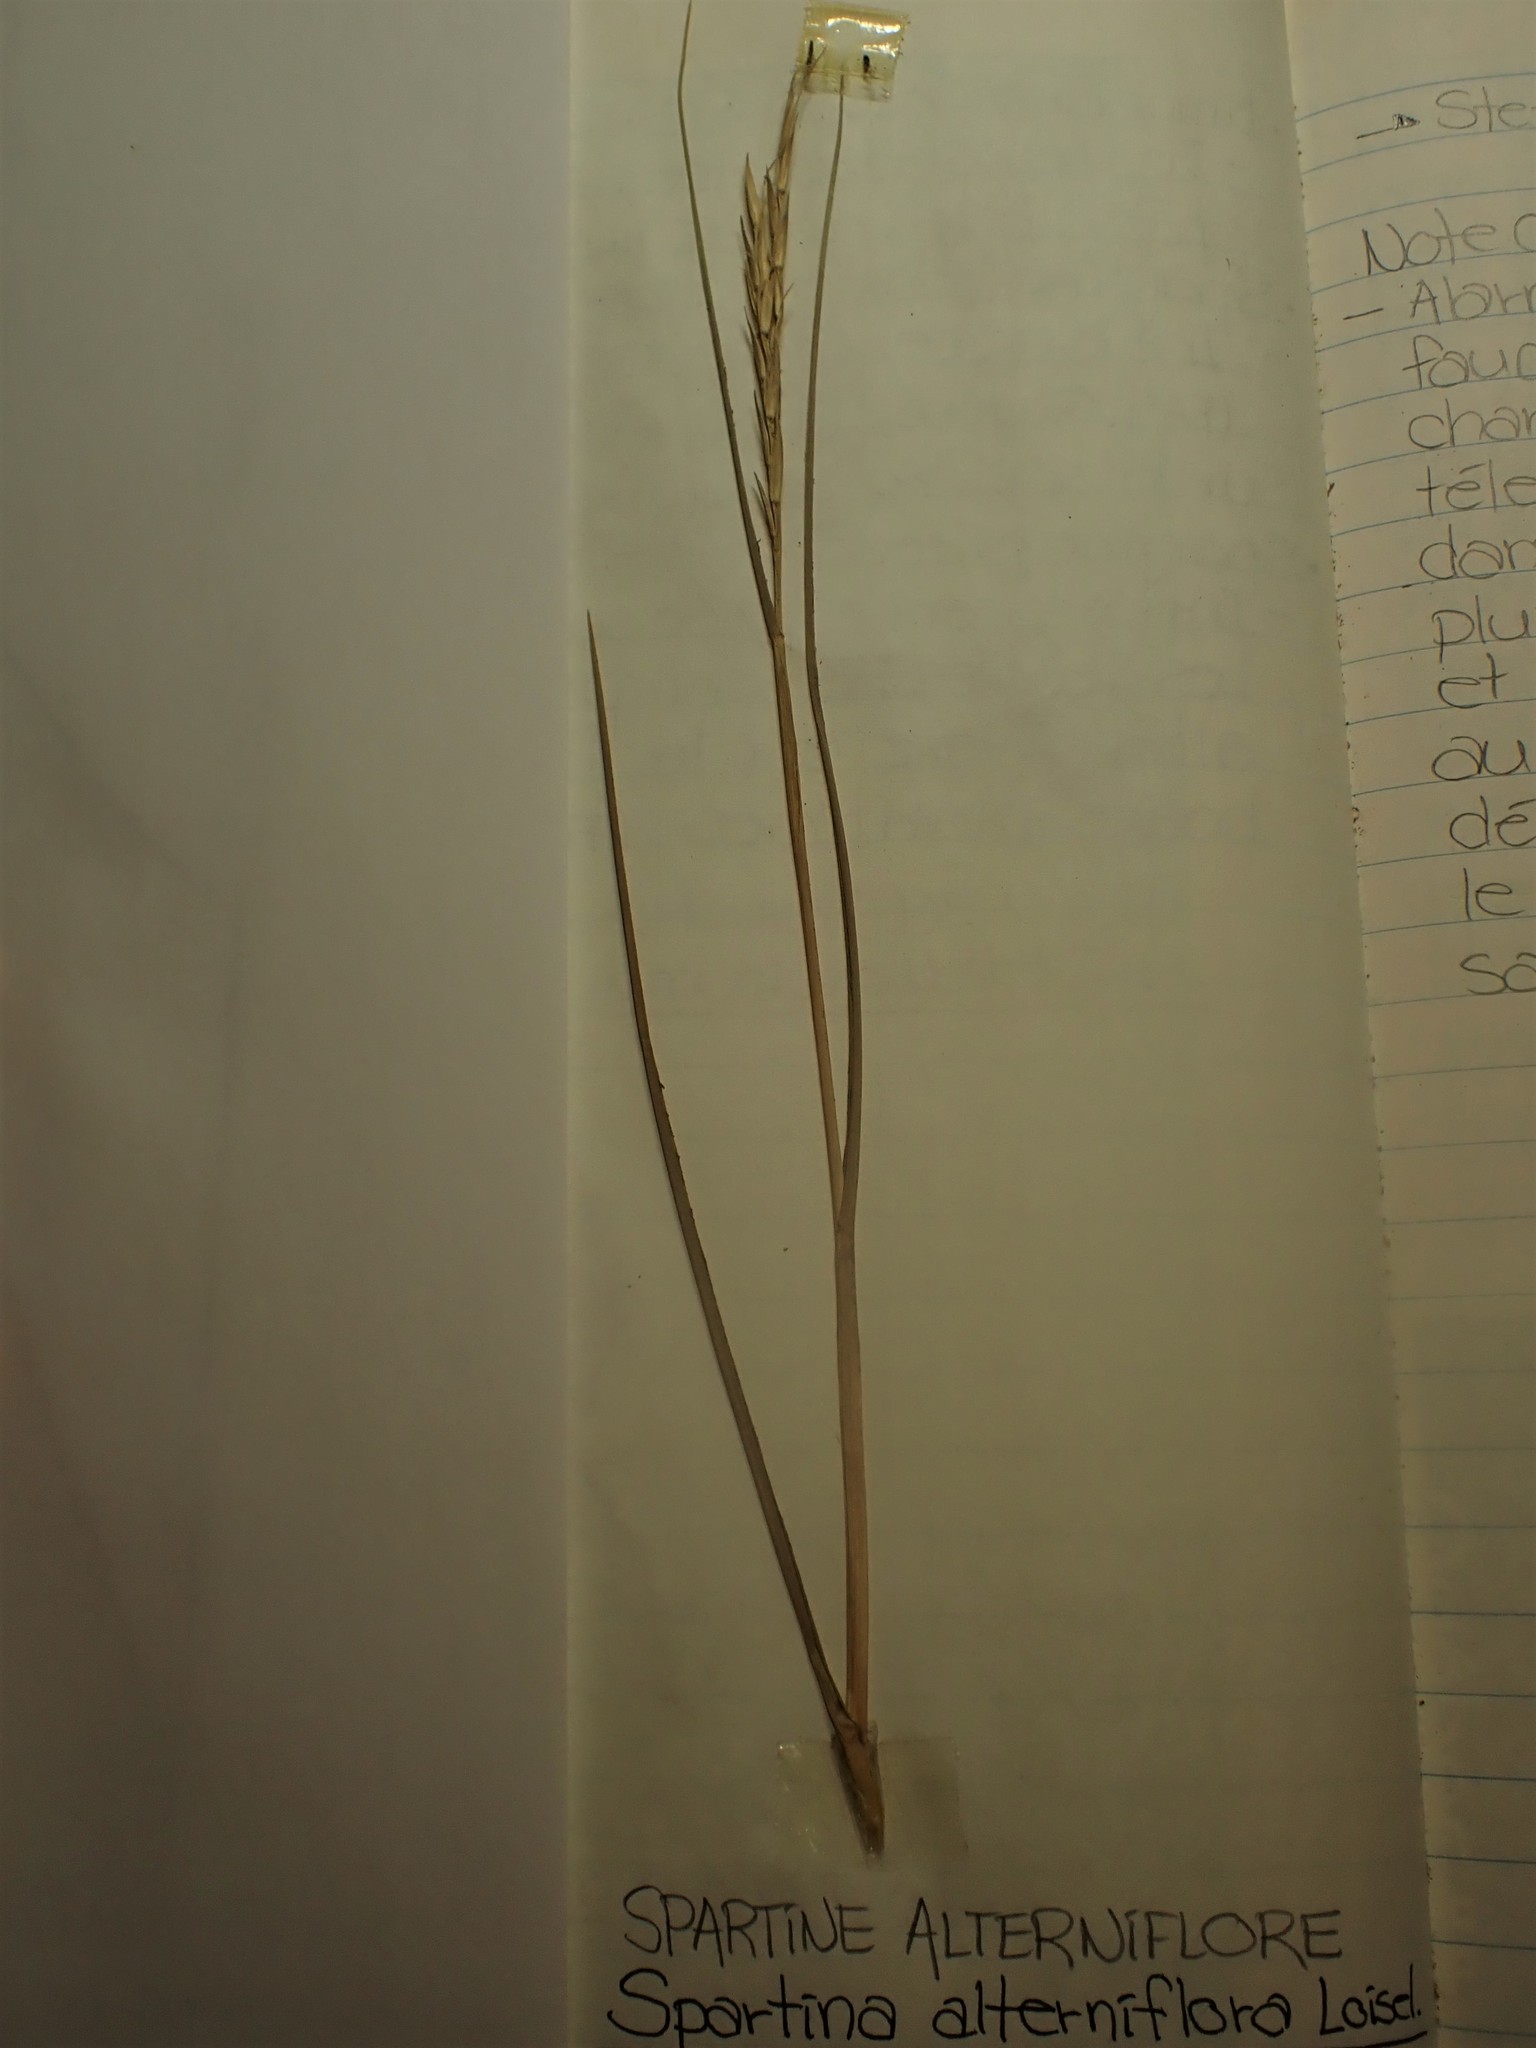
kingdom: Plantae
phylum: Tracheophyta
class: Liliopsida
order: Poales
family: Poaceae
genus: Sporobolus
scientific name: Sporobolus alterniflorus
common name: Atlantic cordgrass
